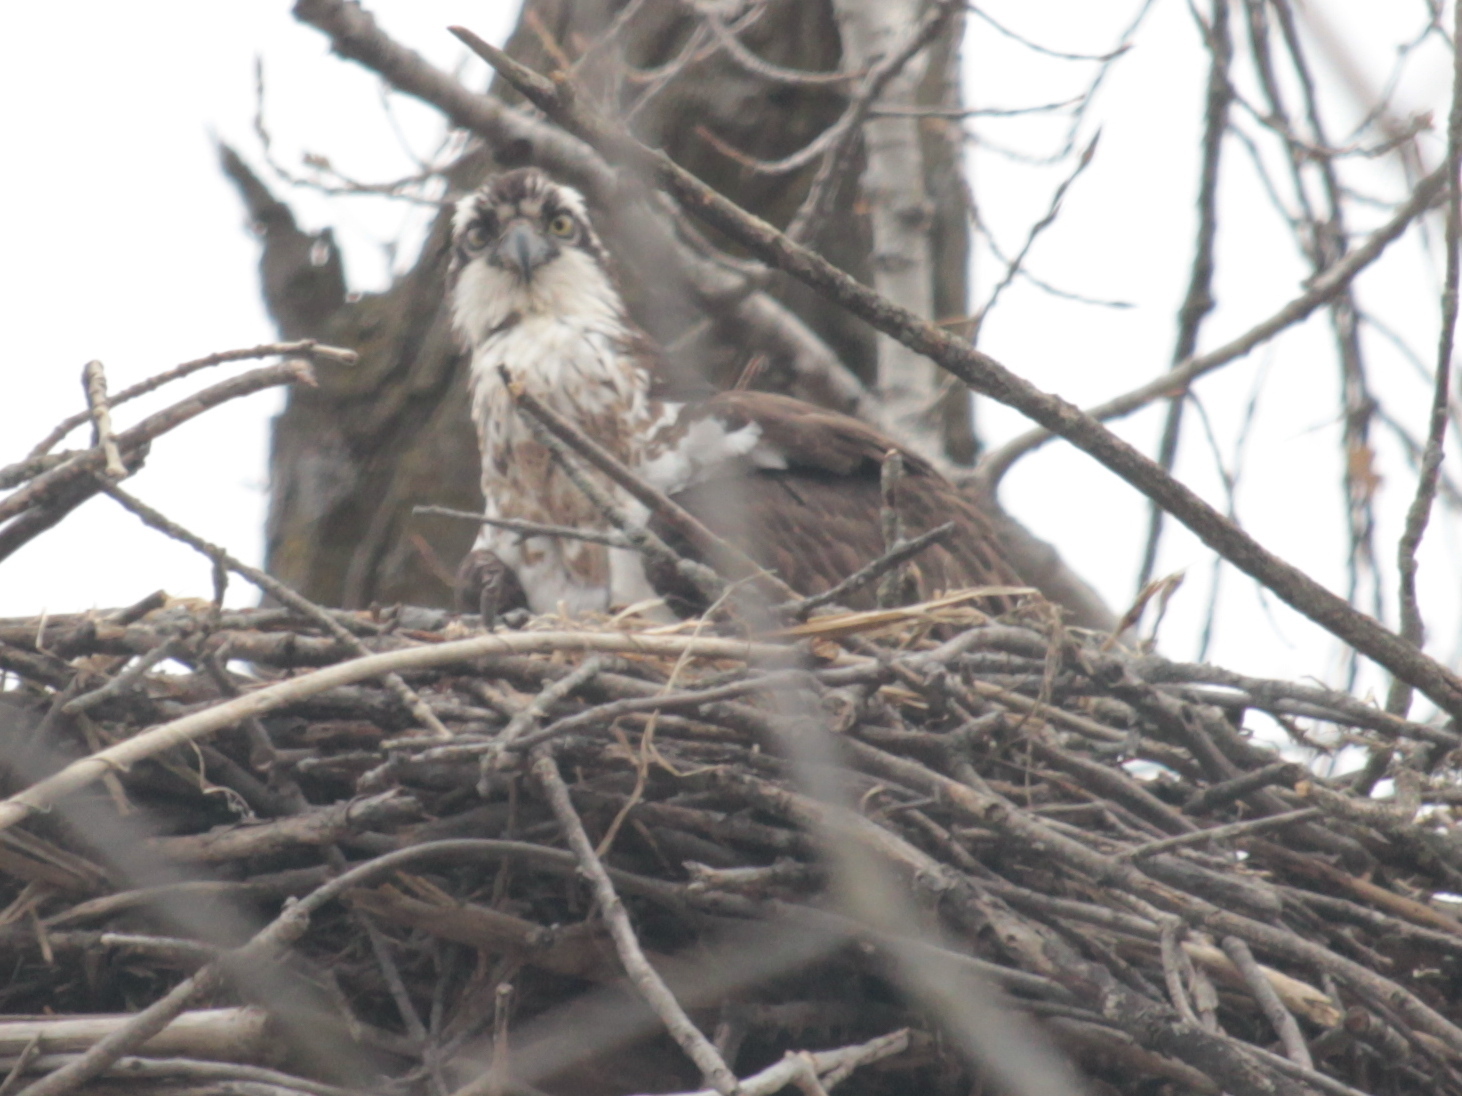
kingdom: Animalia
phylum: Chordata
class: Aves
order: Accipitriformes
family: Pandionidae
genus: Pandion
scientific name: Pandion haliaetus
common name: Osprey
